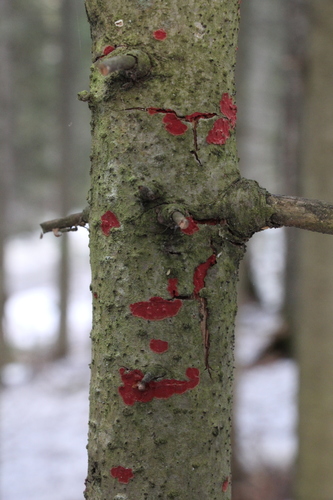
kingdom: Fungi
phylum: Basidiomycota
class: Agaricomycetes
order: Hymenochaetales
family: Hymenochaetaceae
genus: Hymenochaete
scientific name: Hymenochaete cruenta
